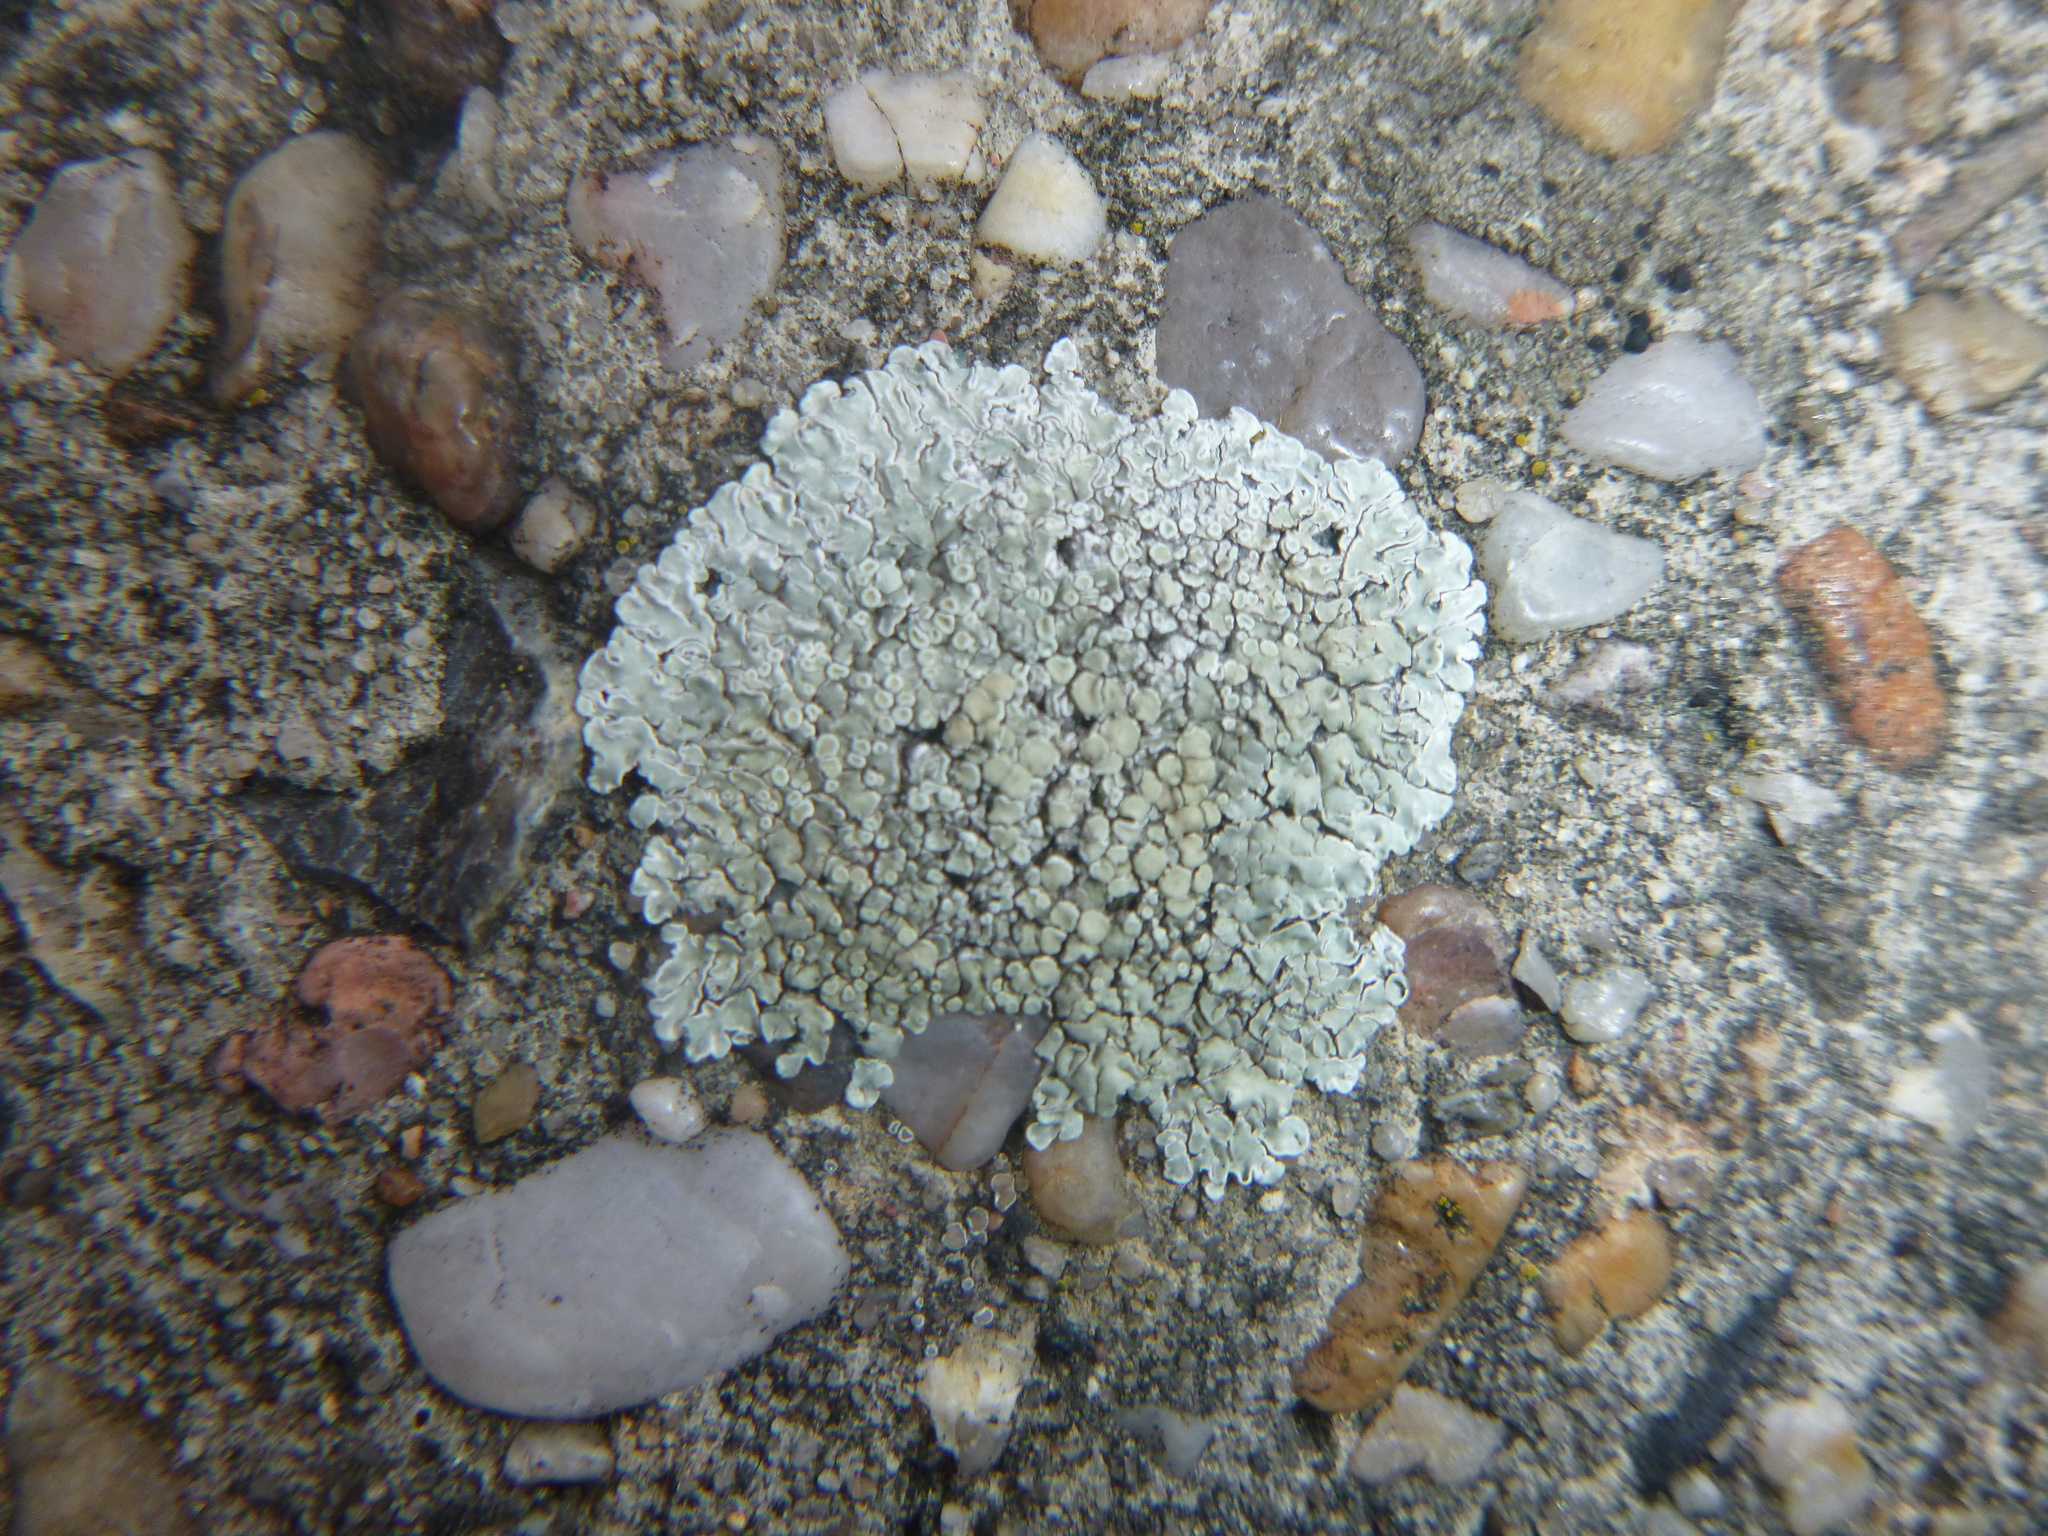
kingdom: Fungi
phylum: Ascomycota
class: Lecanoromycetes
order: Lecanorales
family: Lecanoraceae
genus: Protoparmeliopsis
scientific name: Protoparmeliopsis muralis
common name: Stonewall rim lichen
